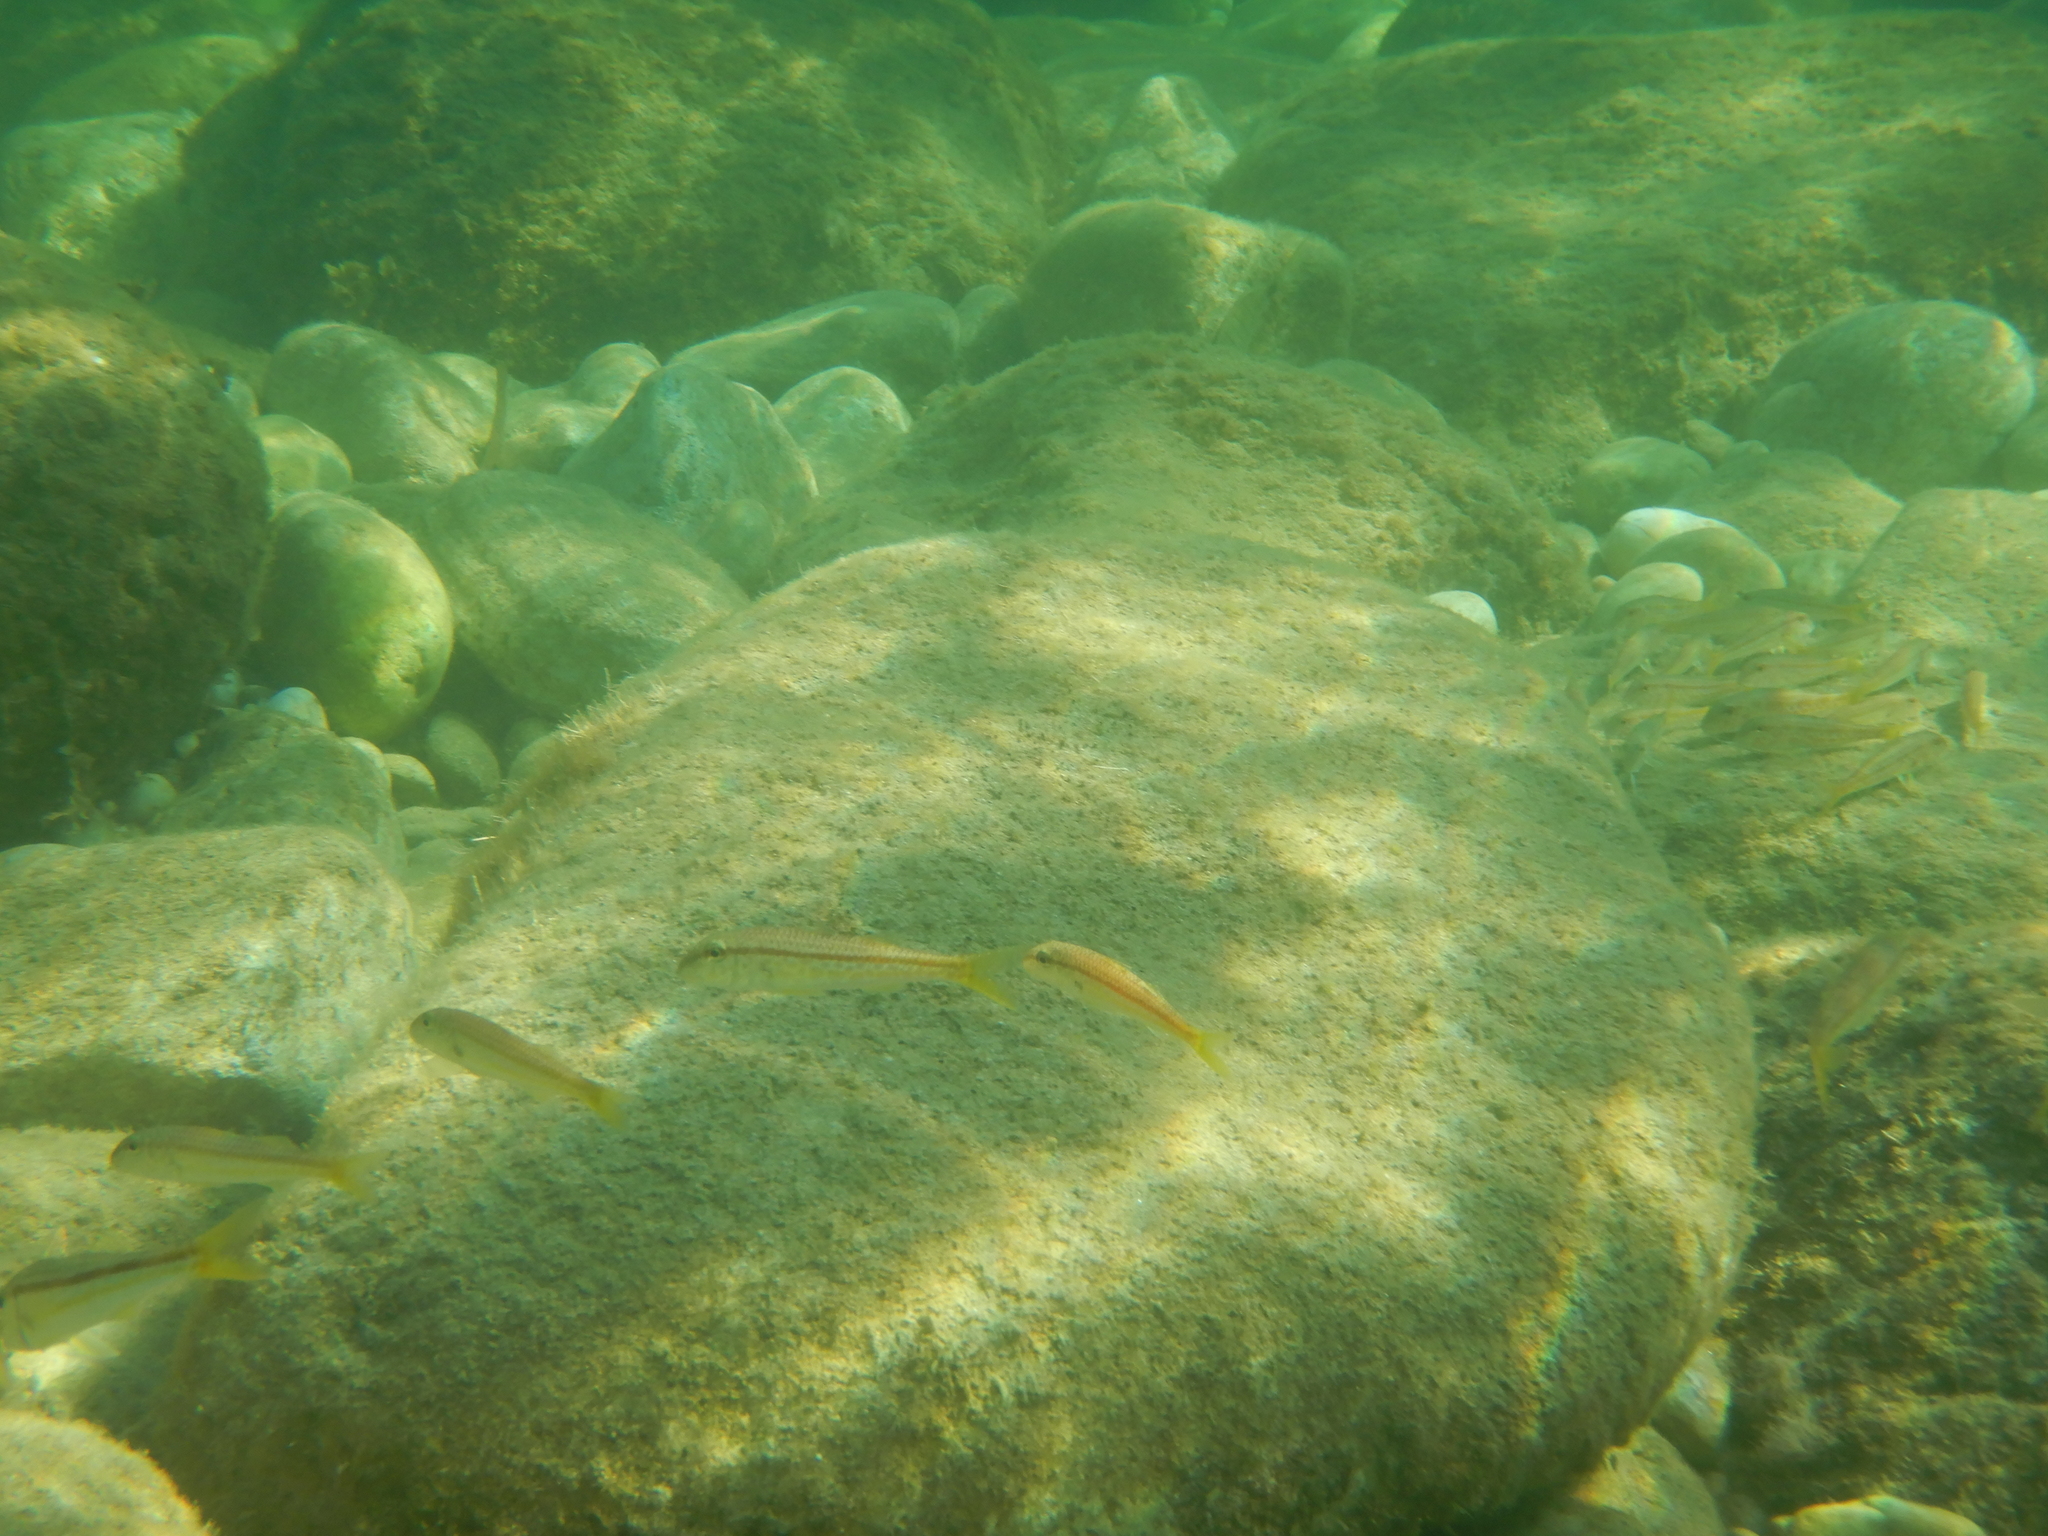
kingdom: Animalia
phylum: Chordata
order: Perciformes
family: Mullidae
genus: Mullus
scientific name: Mullus barbatus
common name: Blunt-snouted mullet
